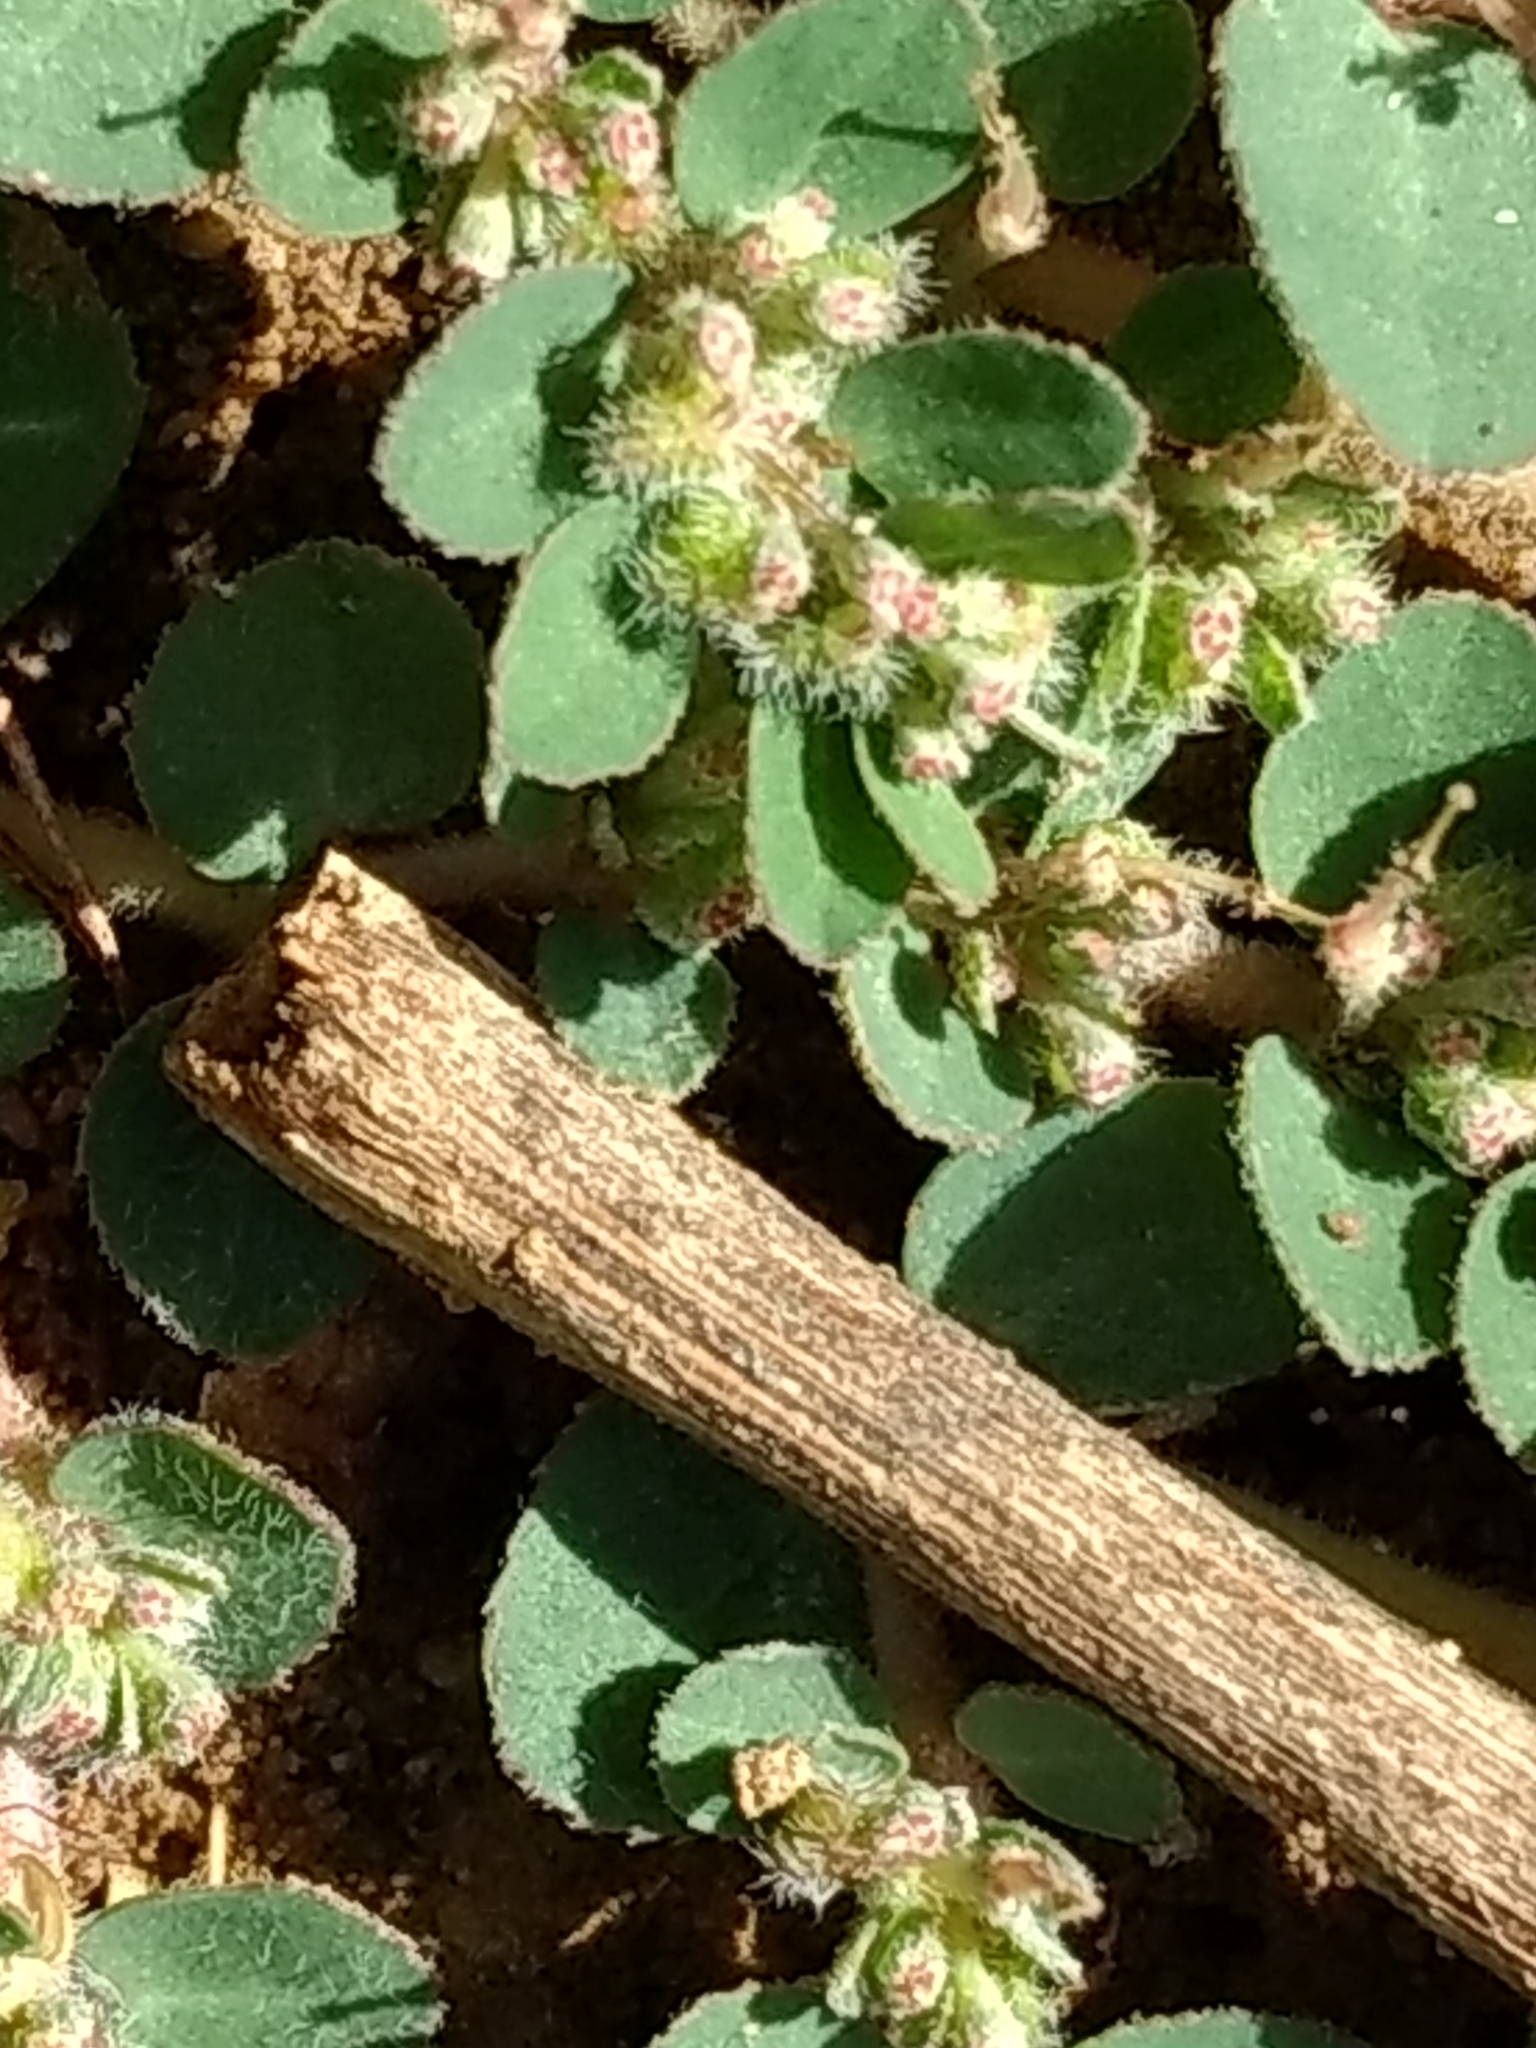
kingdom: Plantae
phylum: Tracheophyta
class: Magnoliopsida
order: Malpighiales
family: Euphorbiaceae
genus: Euphorbia
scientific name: Euphorbia prostrata
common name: Prostrate sandmat
